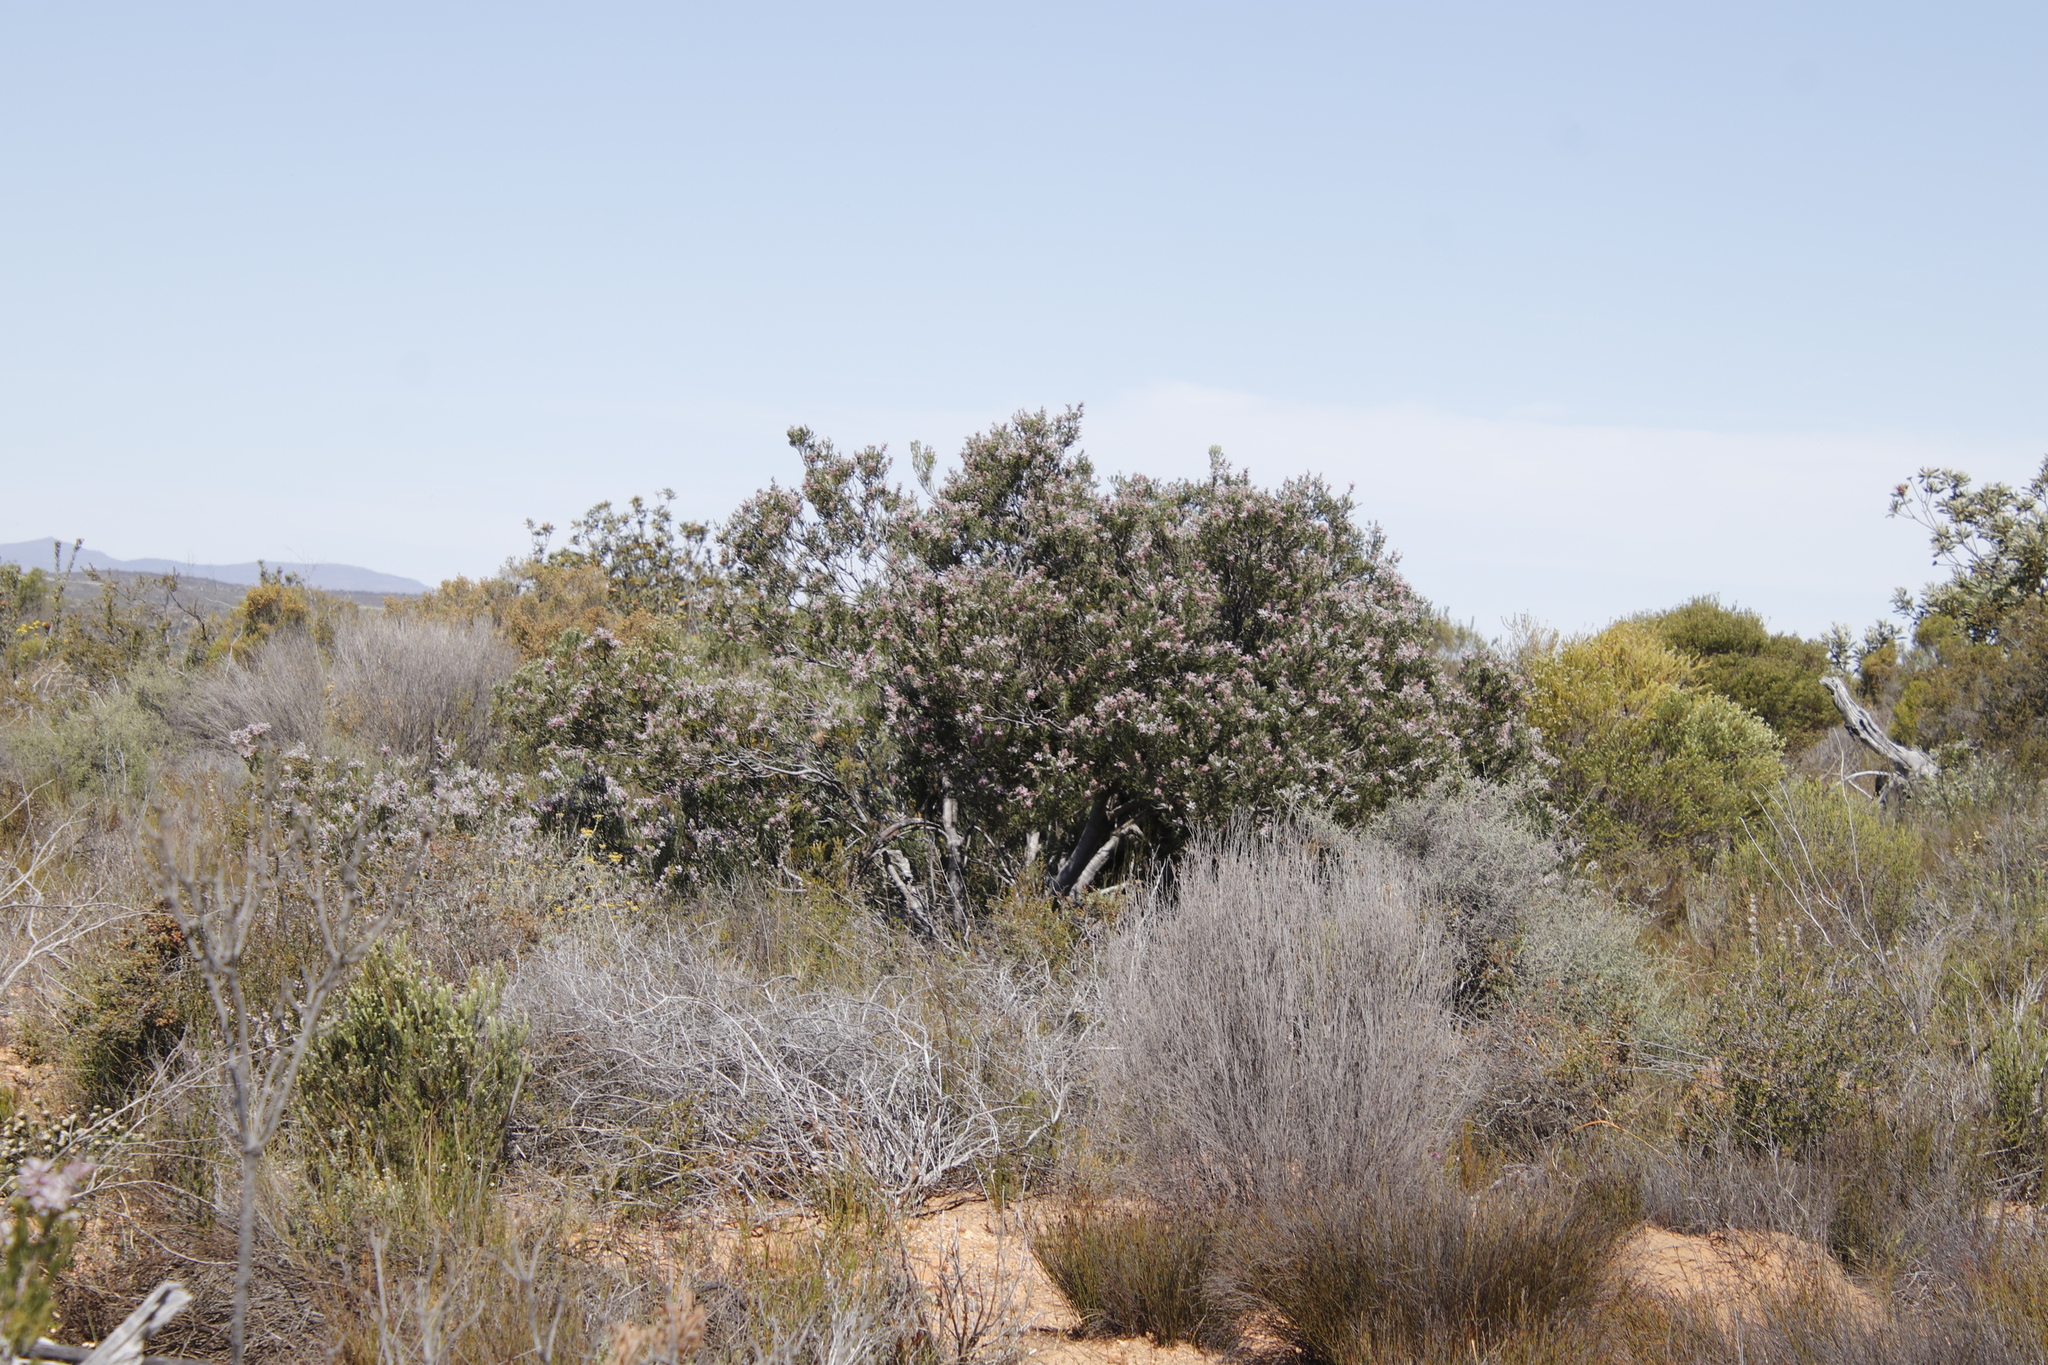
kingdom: Plantae
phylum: Tracheophyta
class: Magnoliopsida
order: Proteales
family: Proteaceae
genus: Paranomus
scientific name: Paranomus bracteolaris
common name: Bokkeveld tree sceptre
